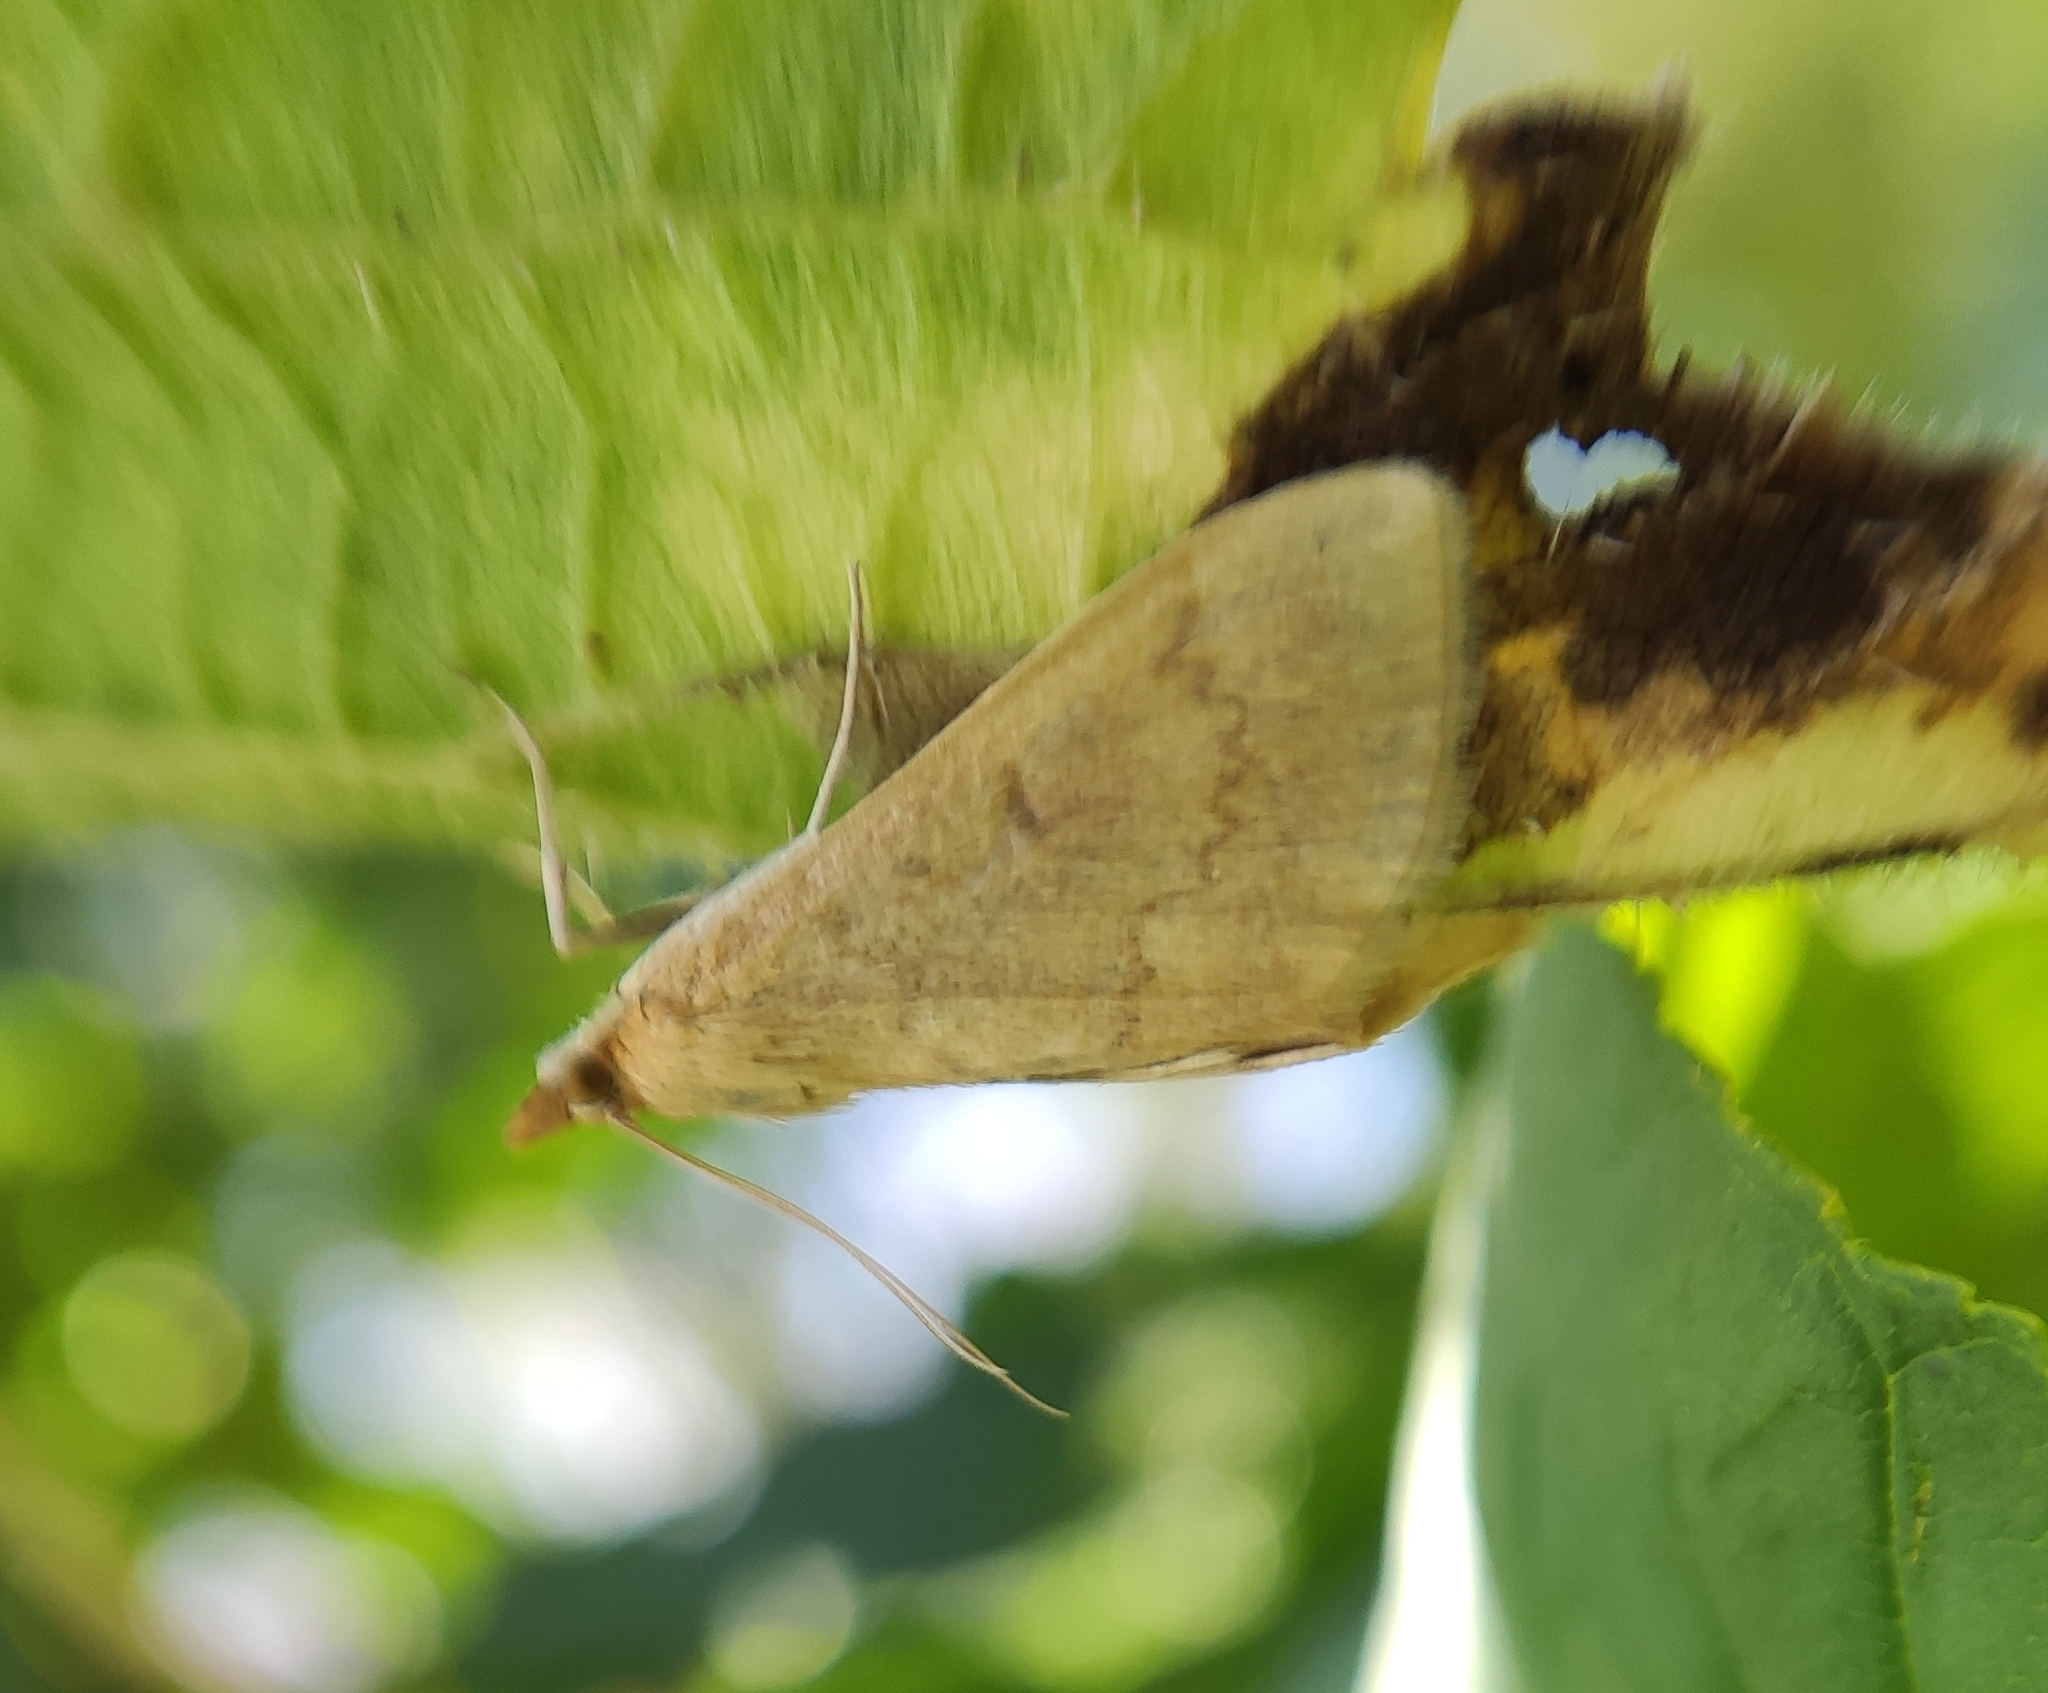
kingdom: Animalia
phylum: Arthropoda
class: Insecta
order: Lepidoptera
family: Crambidae
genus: Ostrinia
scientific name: Ostrinia nubilalis
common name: European corn borer
